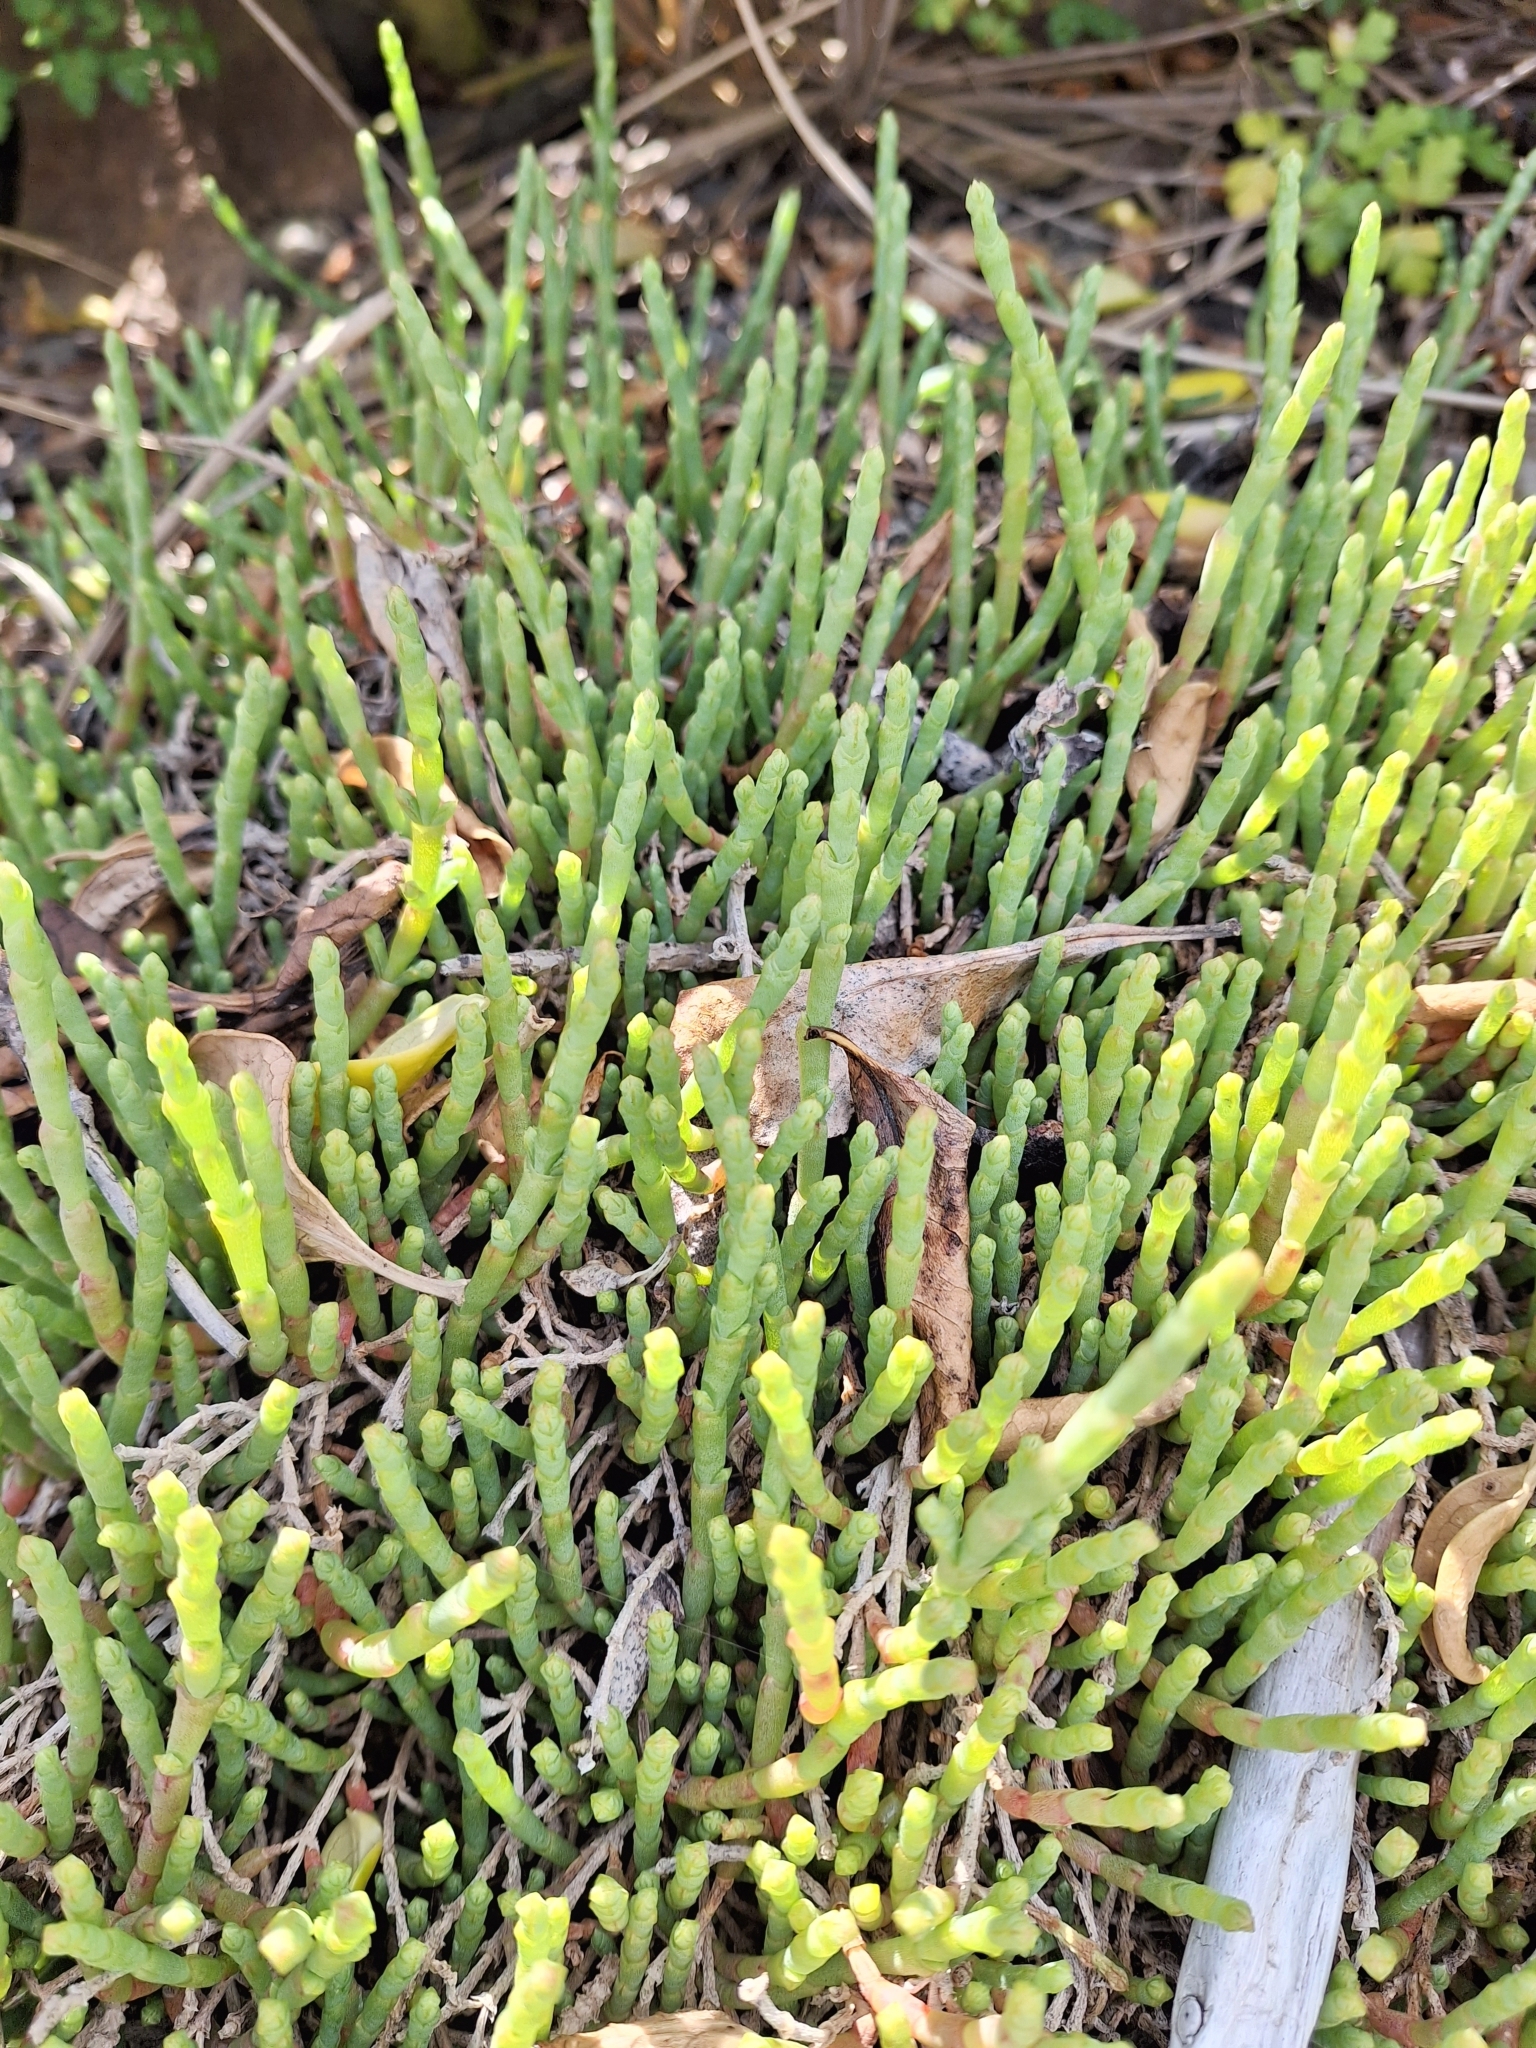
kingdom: Plantae
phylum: Tracheophyta
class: Magnoliopsida
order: Caryophyllales
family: Amaranthaceae
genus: Salicornia
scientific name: Salicornia quinqueflora
